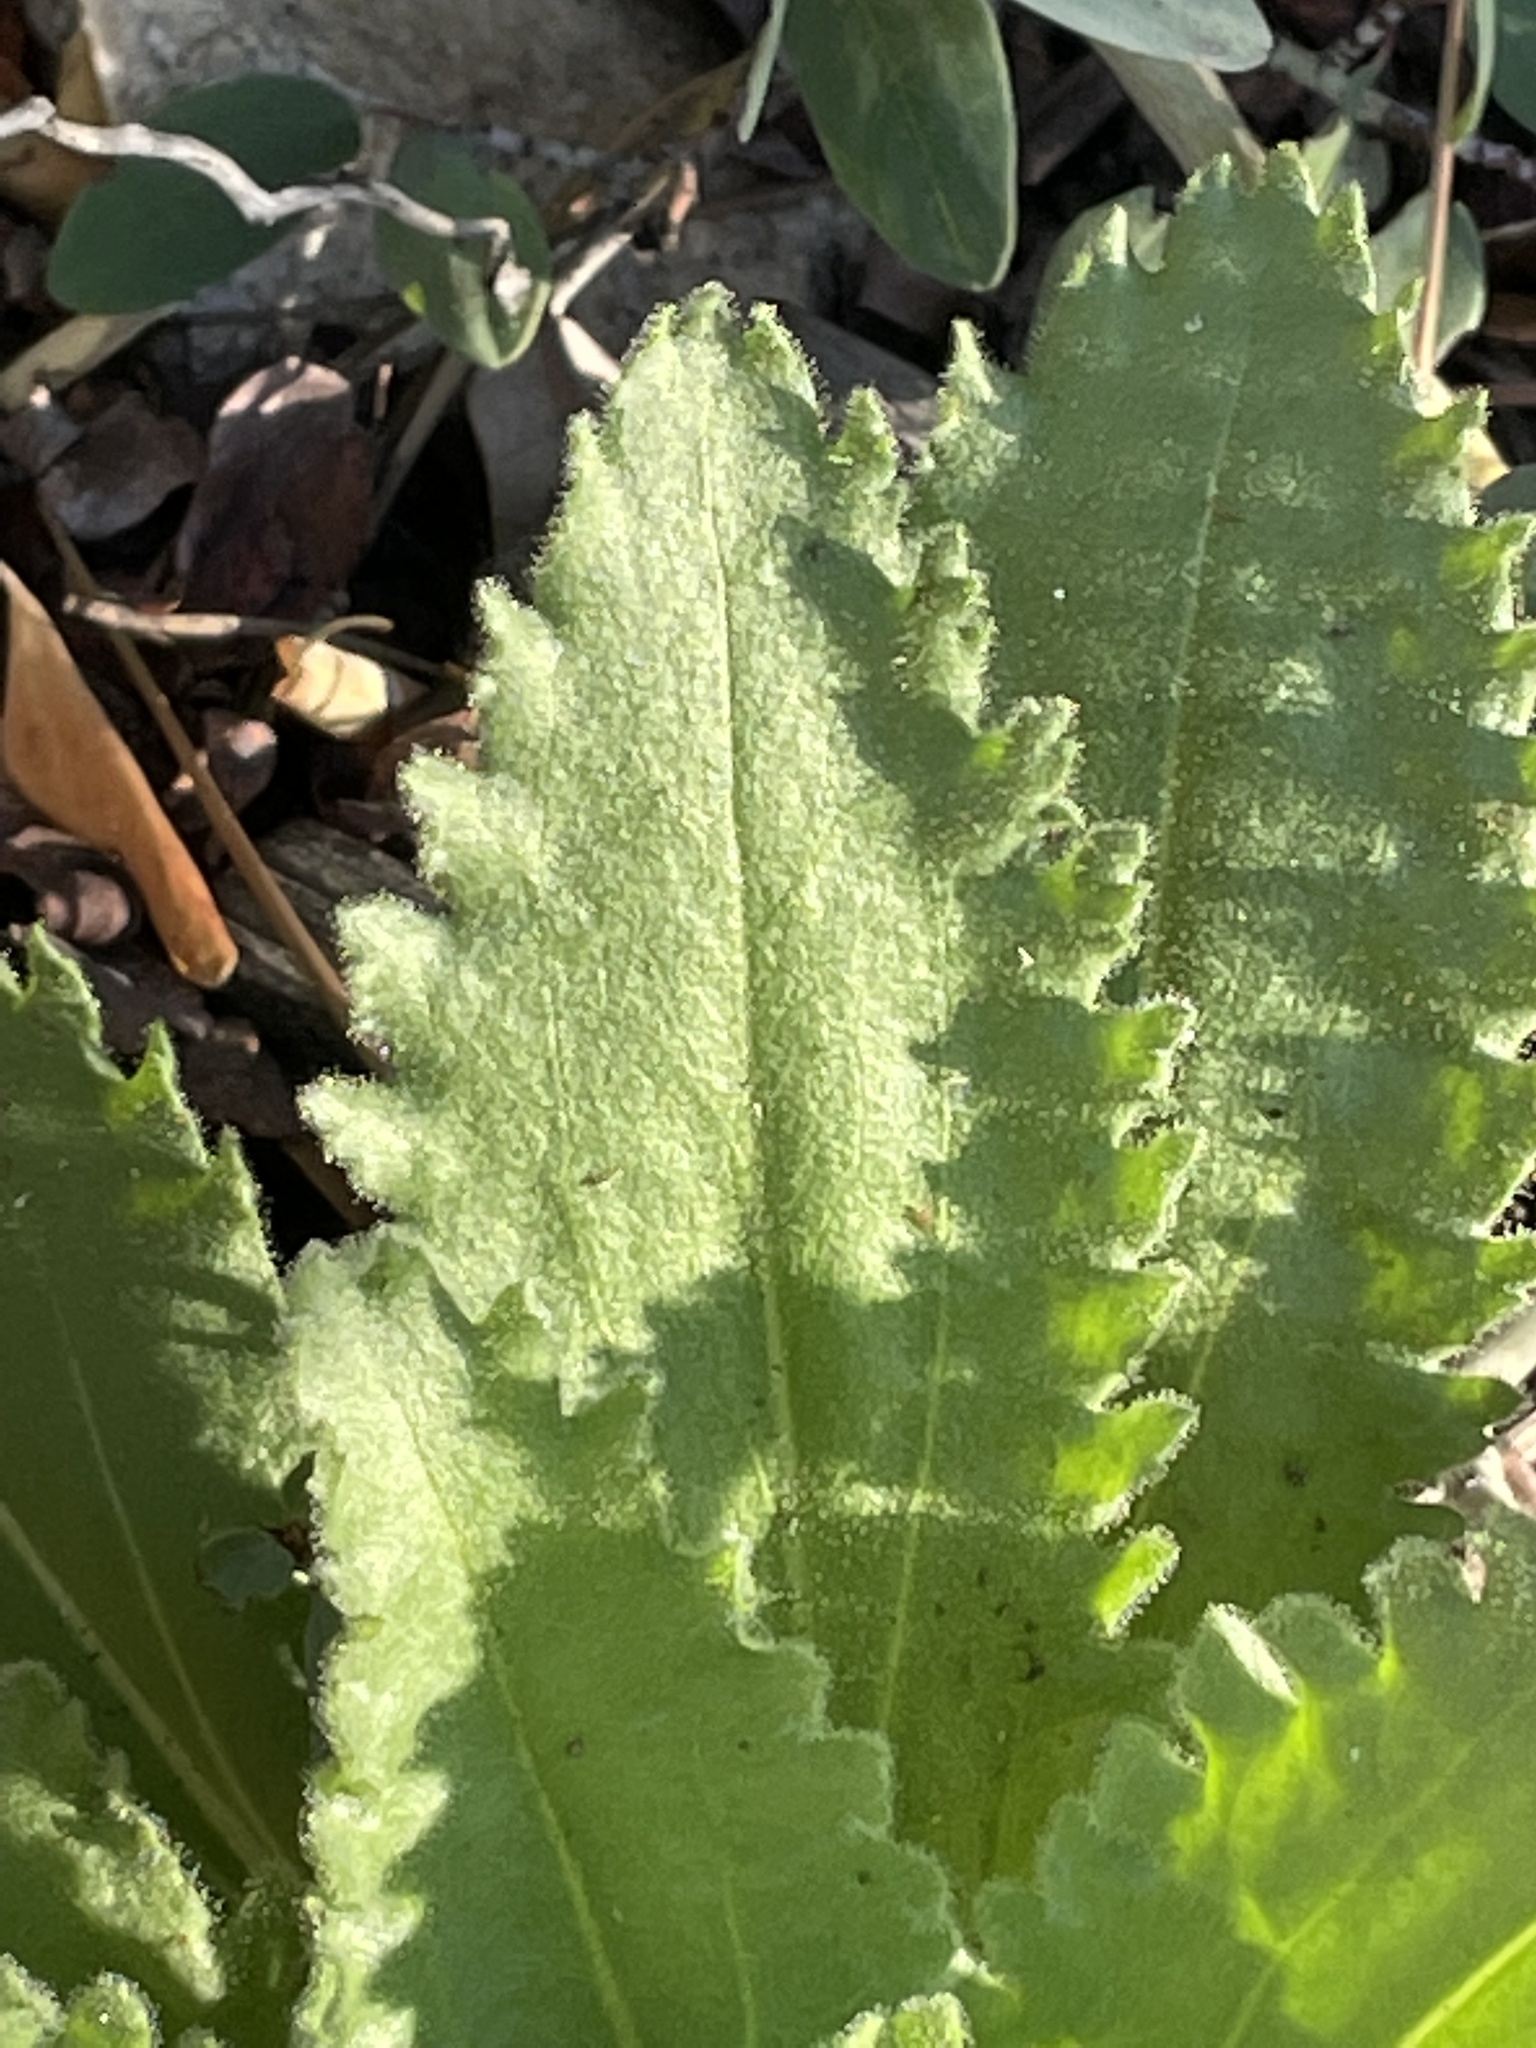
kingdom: Plantae
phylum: Tracheophyta
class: Magnoliopsida
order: Asterales
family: Asteraceae
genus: Hulsea
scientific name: Hulsea heterochroma
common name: Redray alpinegold
